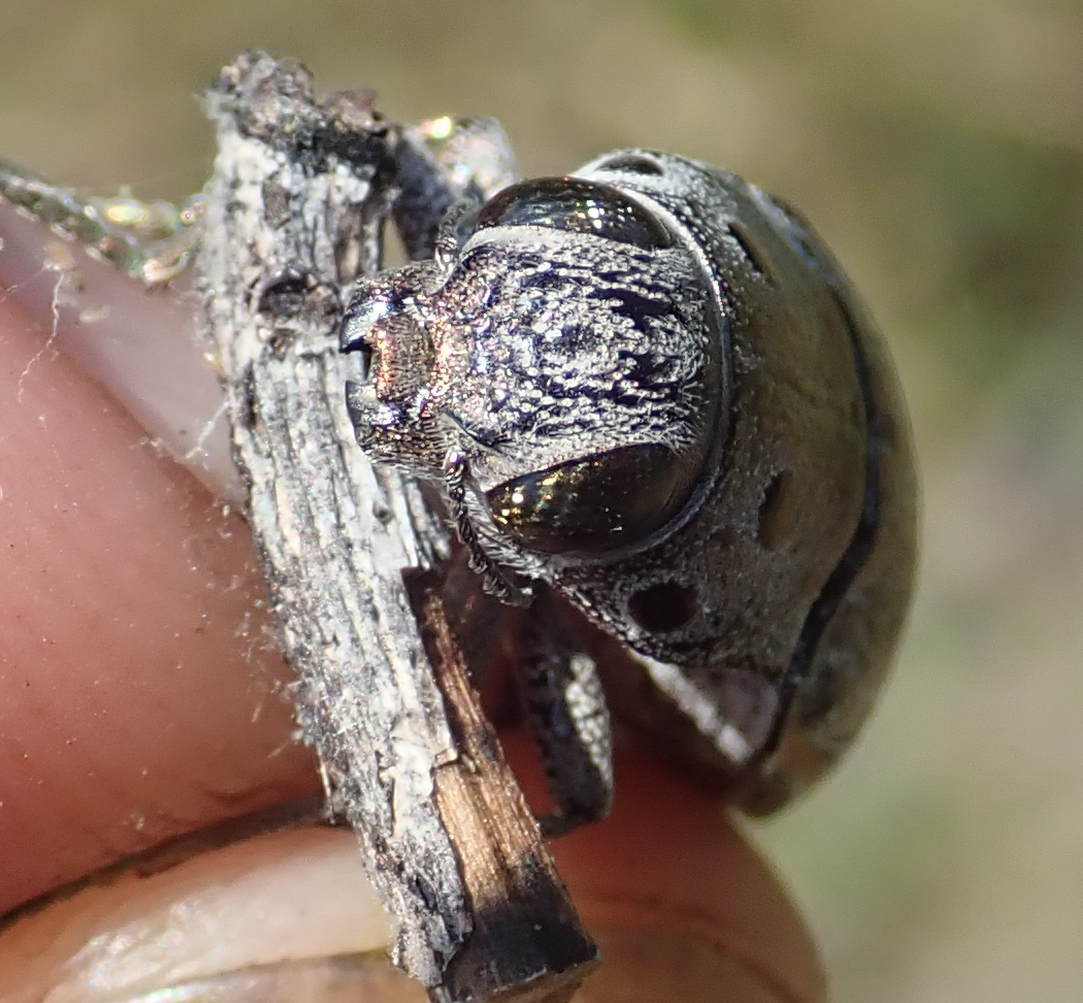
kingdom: Animalia
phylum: Arthropoda
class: Insecta
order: Coleoptera
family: Buprestidae
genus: Lampetis
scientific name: Lampetis quadriareolata
